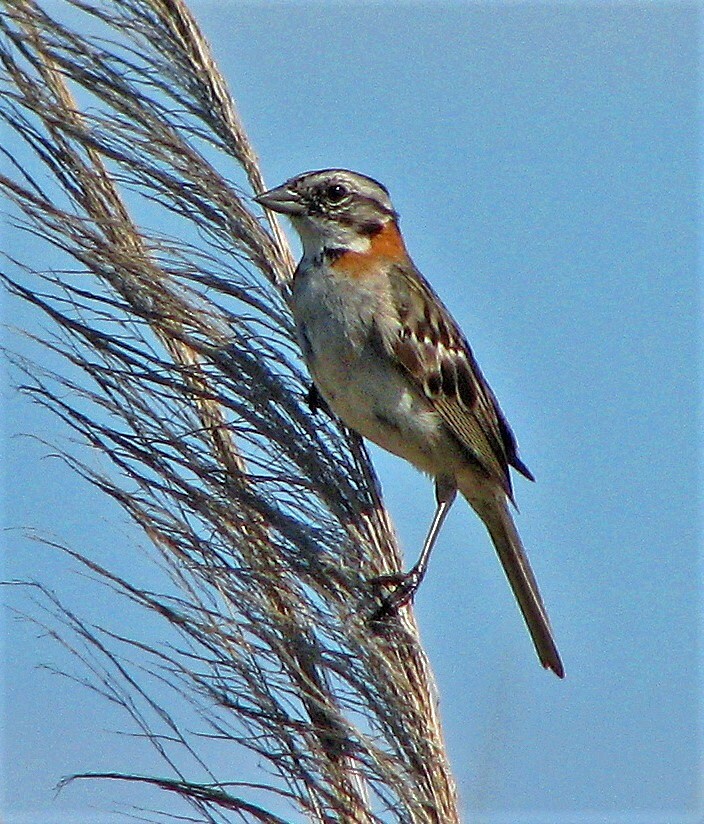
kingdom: Animalia
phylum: Chordata
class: Aves
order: Passeriformes
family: Passerellidae
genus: Zonotrichia
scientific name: Zonotrichia capensis
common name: Rufous-collared sparrow
